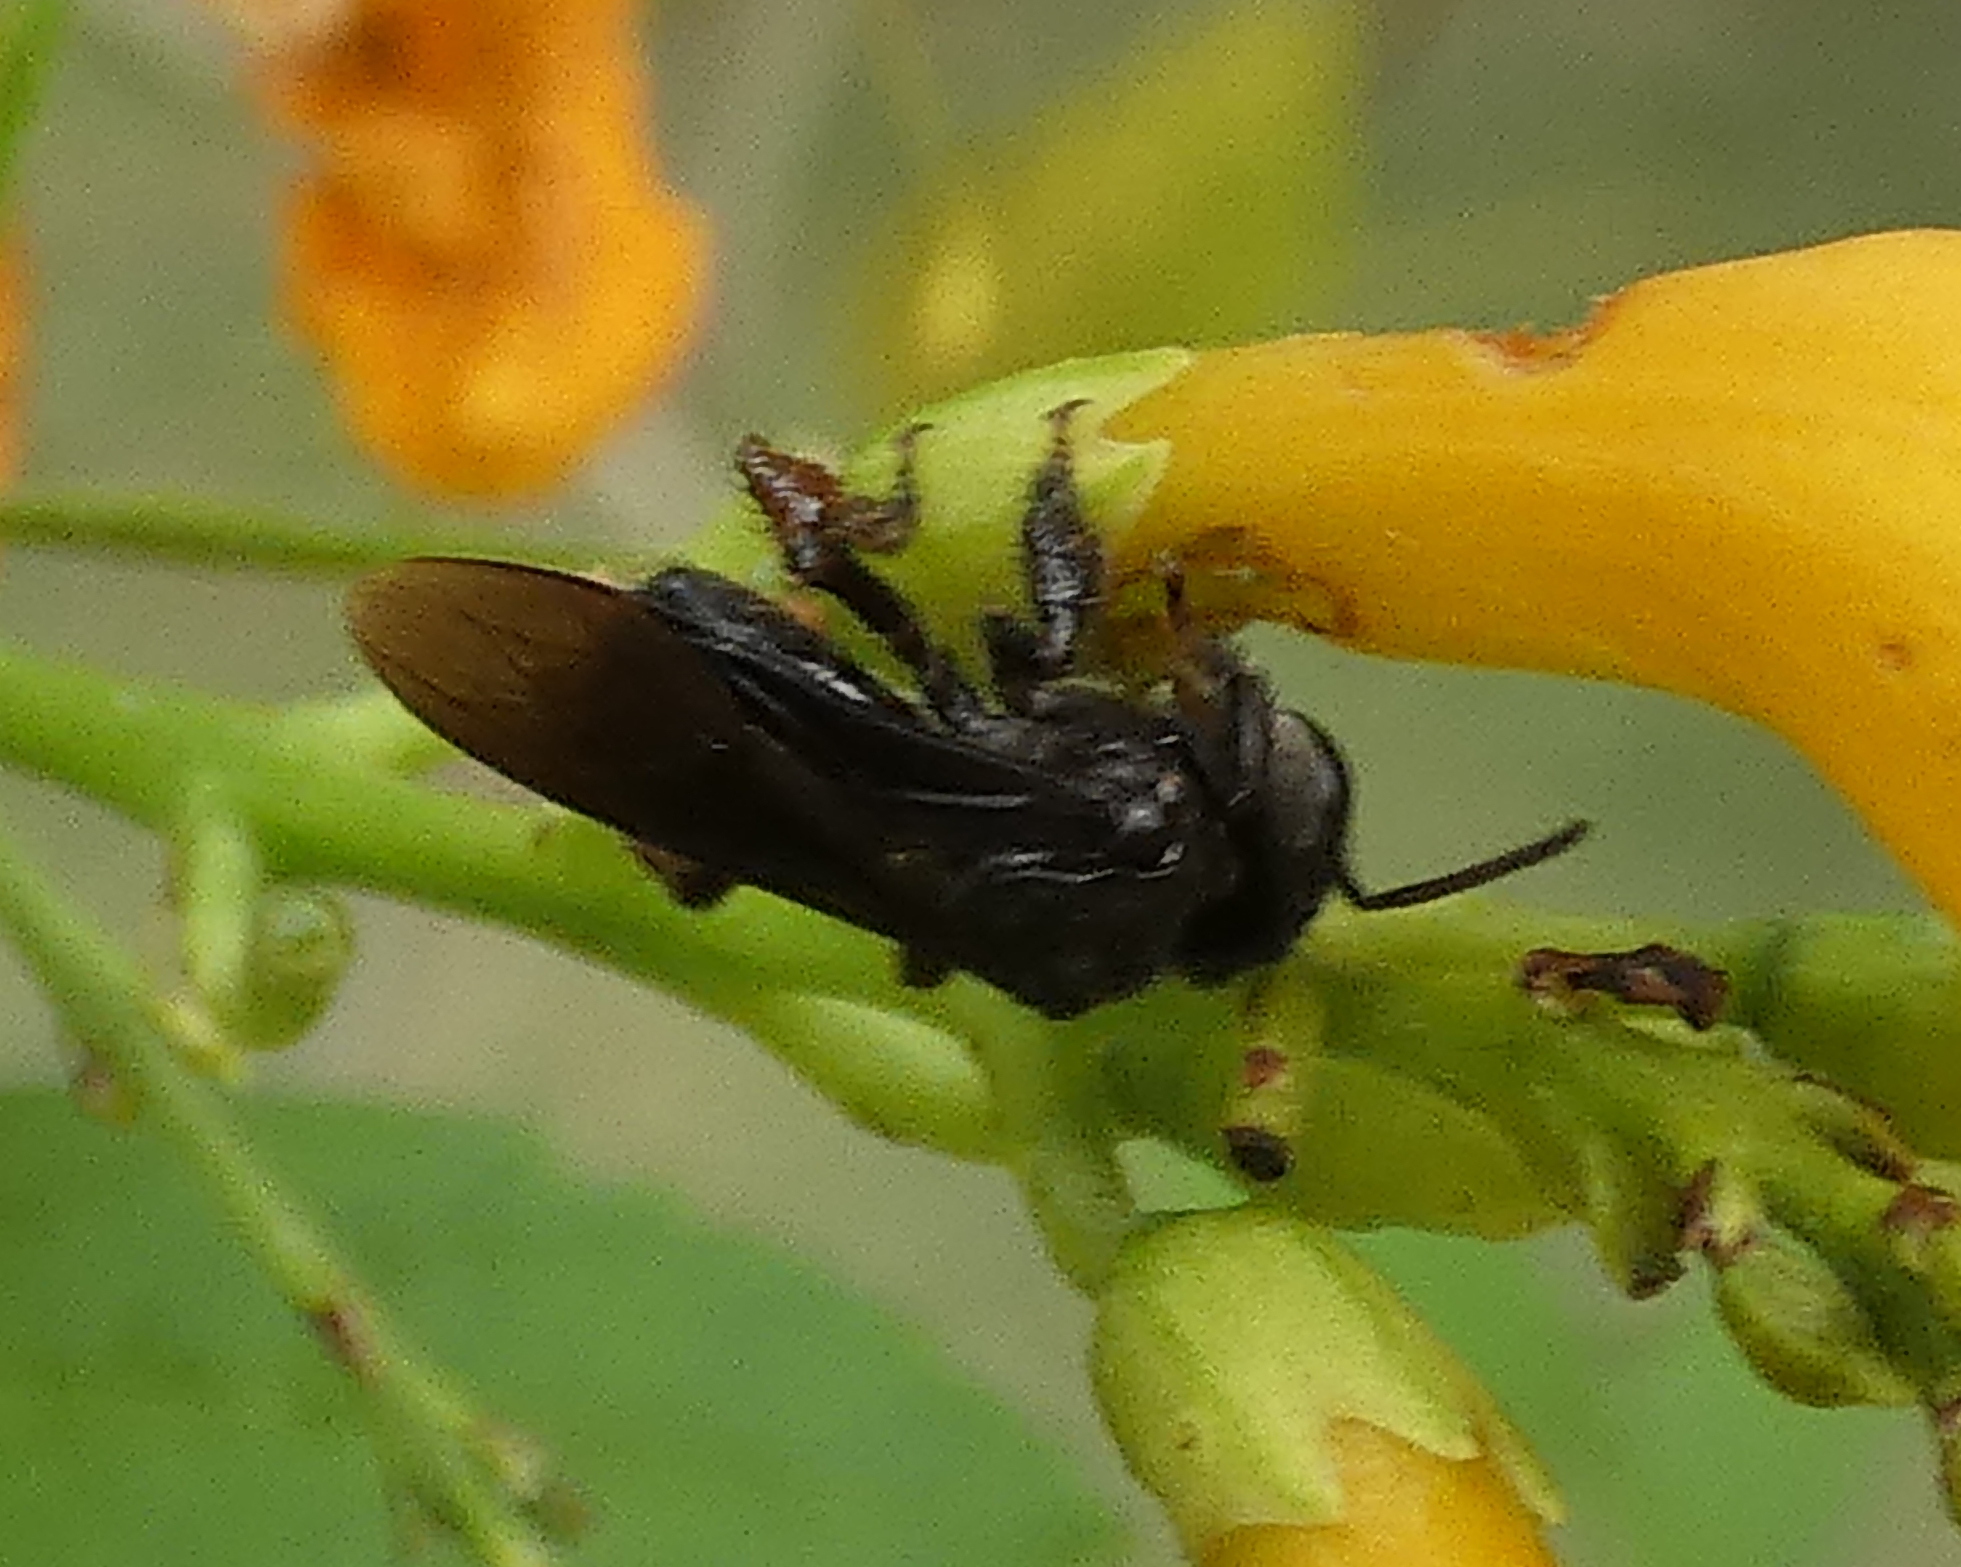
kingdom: Animalia
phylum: Arthropoda
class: Insecta
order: Hymenoptera
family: Apidae
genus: Trigona
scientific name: Trigona spinipes
